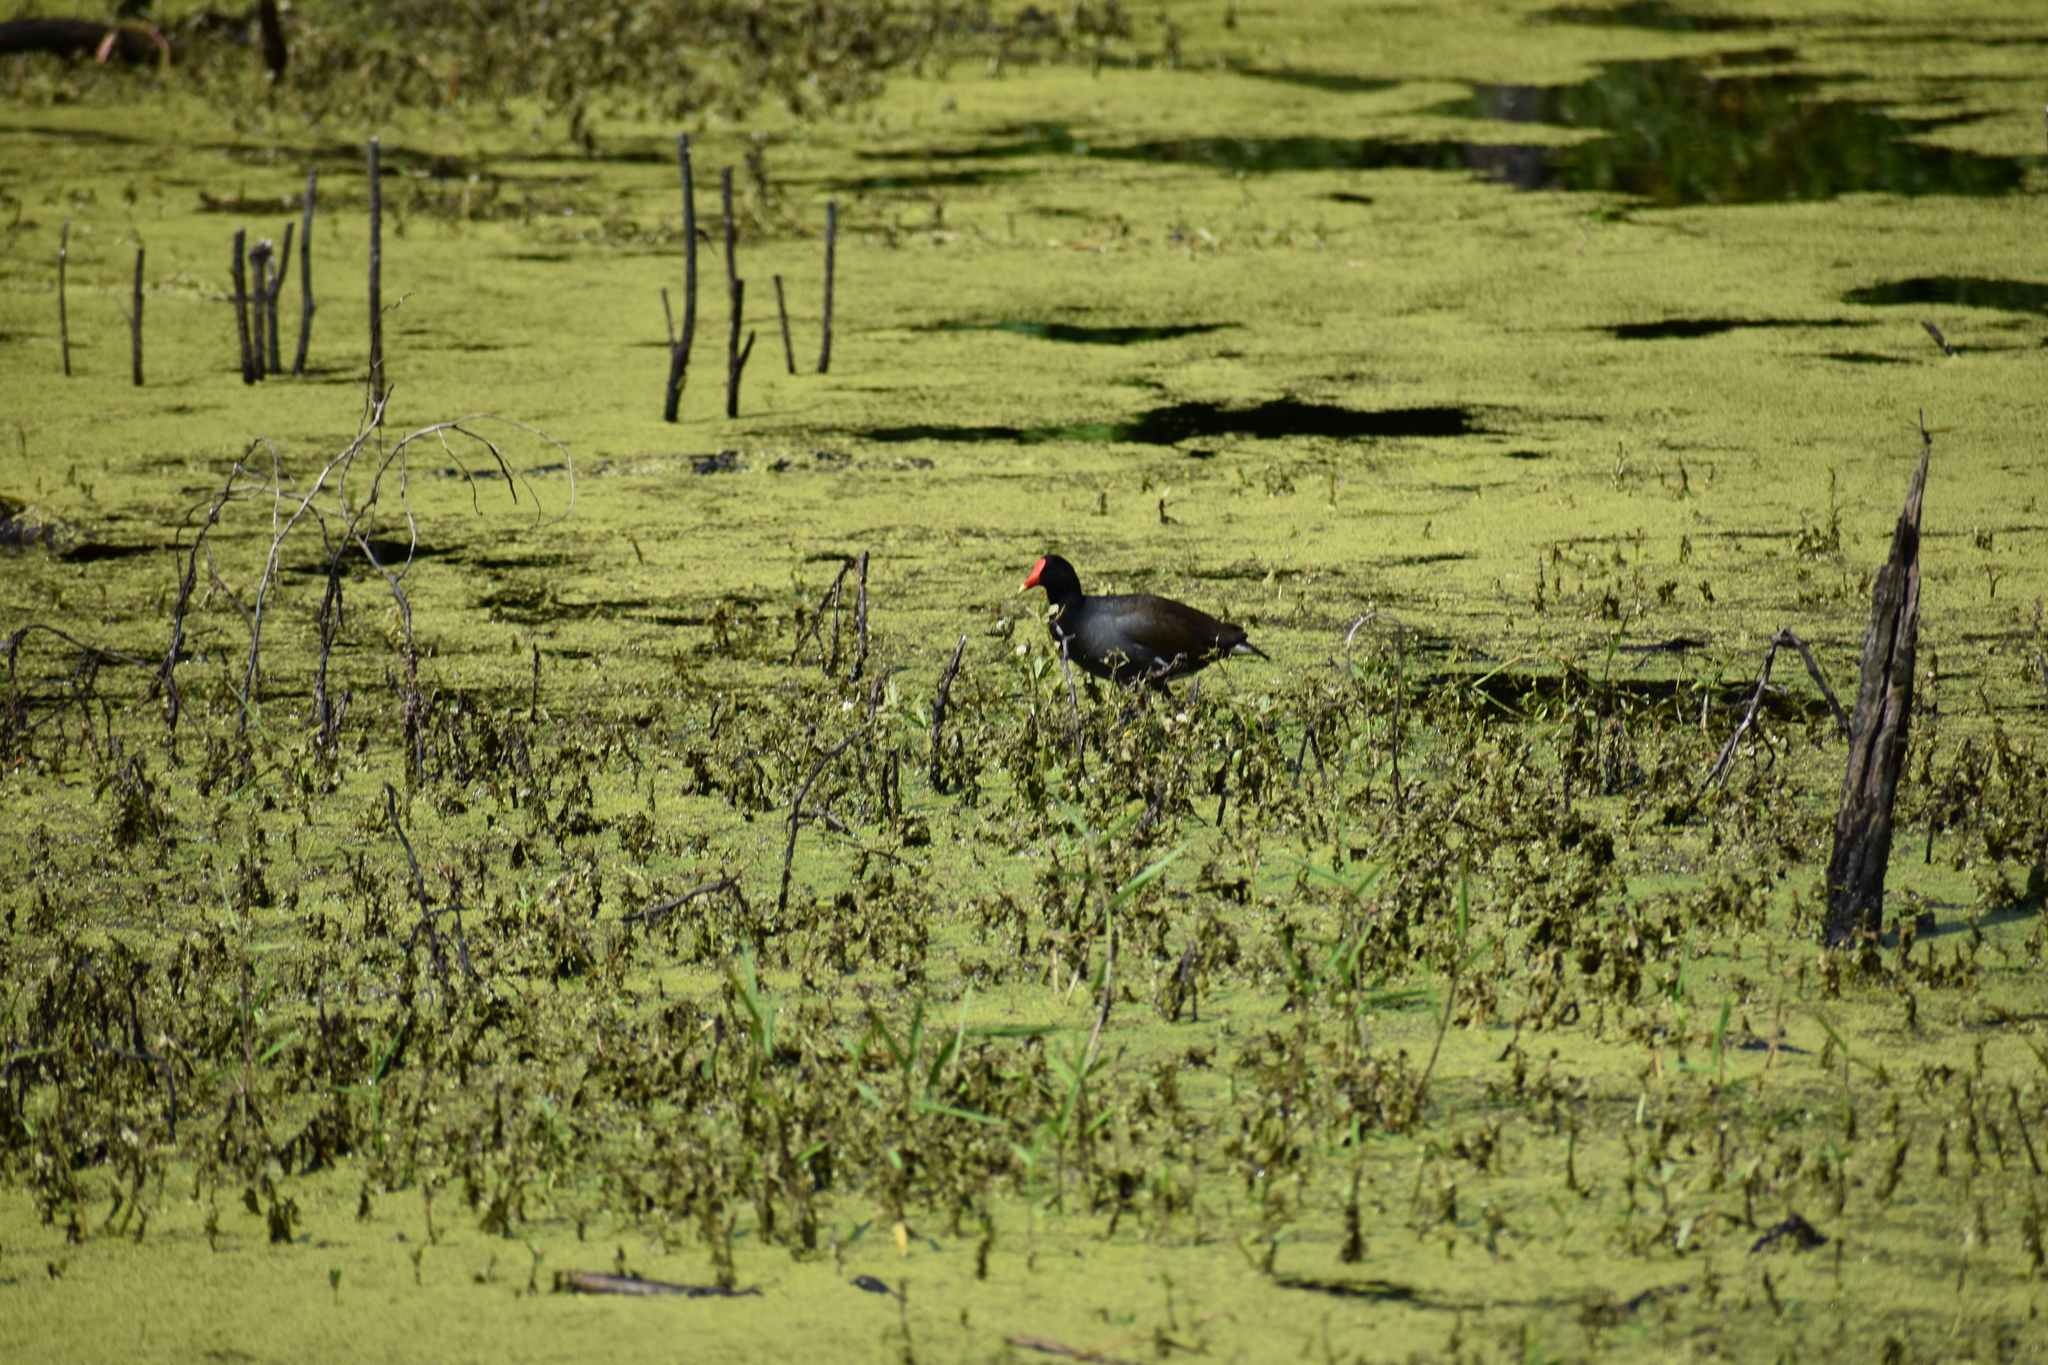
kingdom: Animalia
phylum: Chordata
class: Aves
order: Gruiformes
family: Rallidae
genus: Gallinula
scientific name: Gallinula chloropus
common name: Common moorhen
